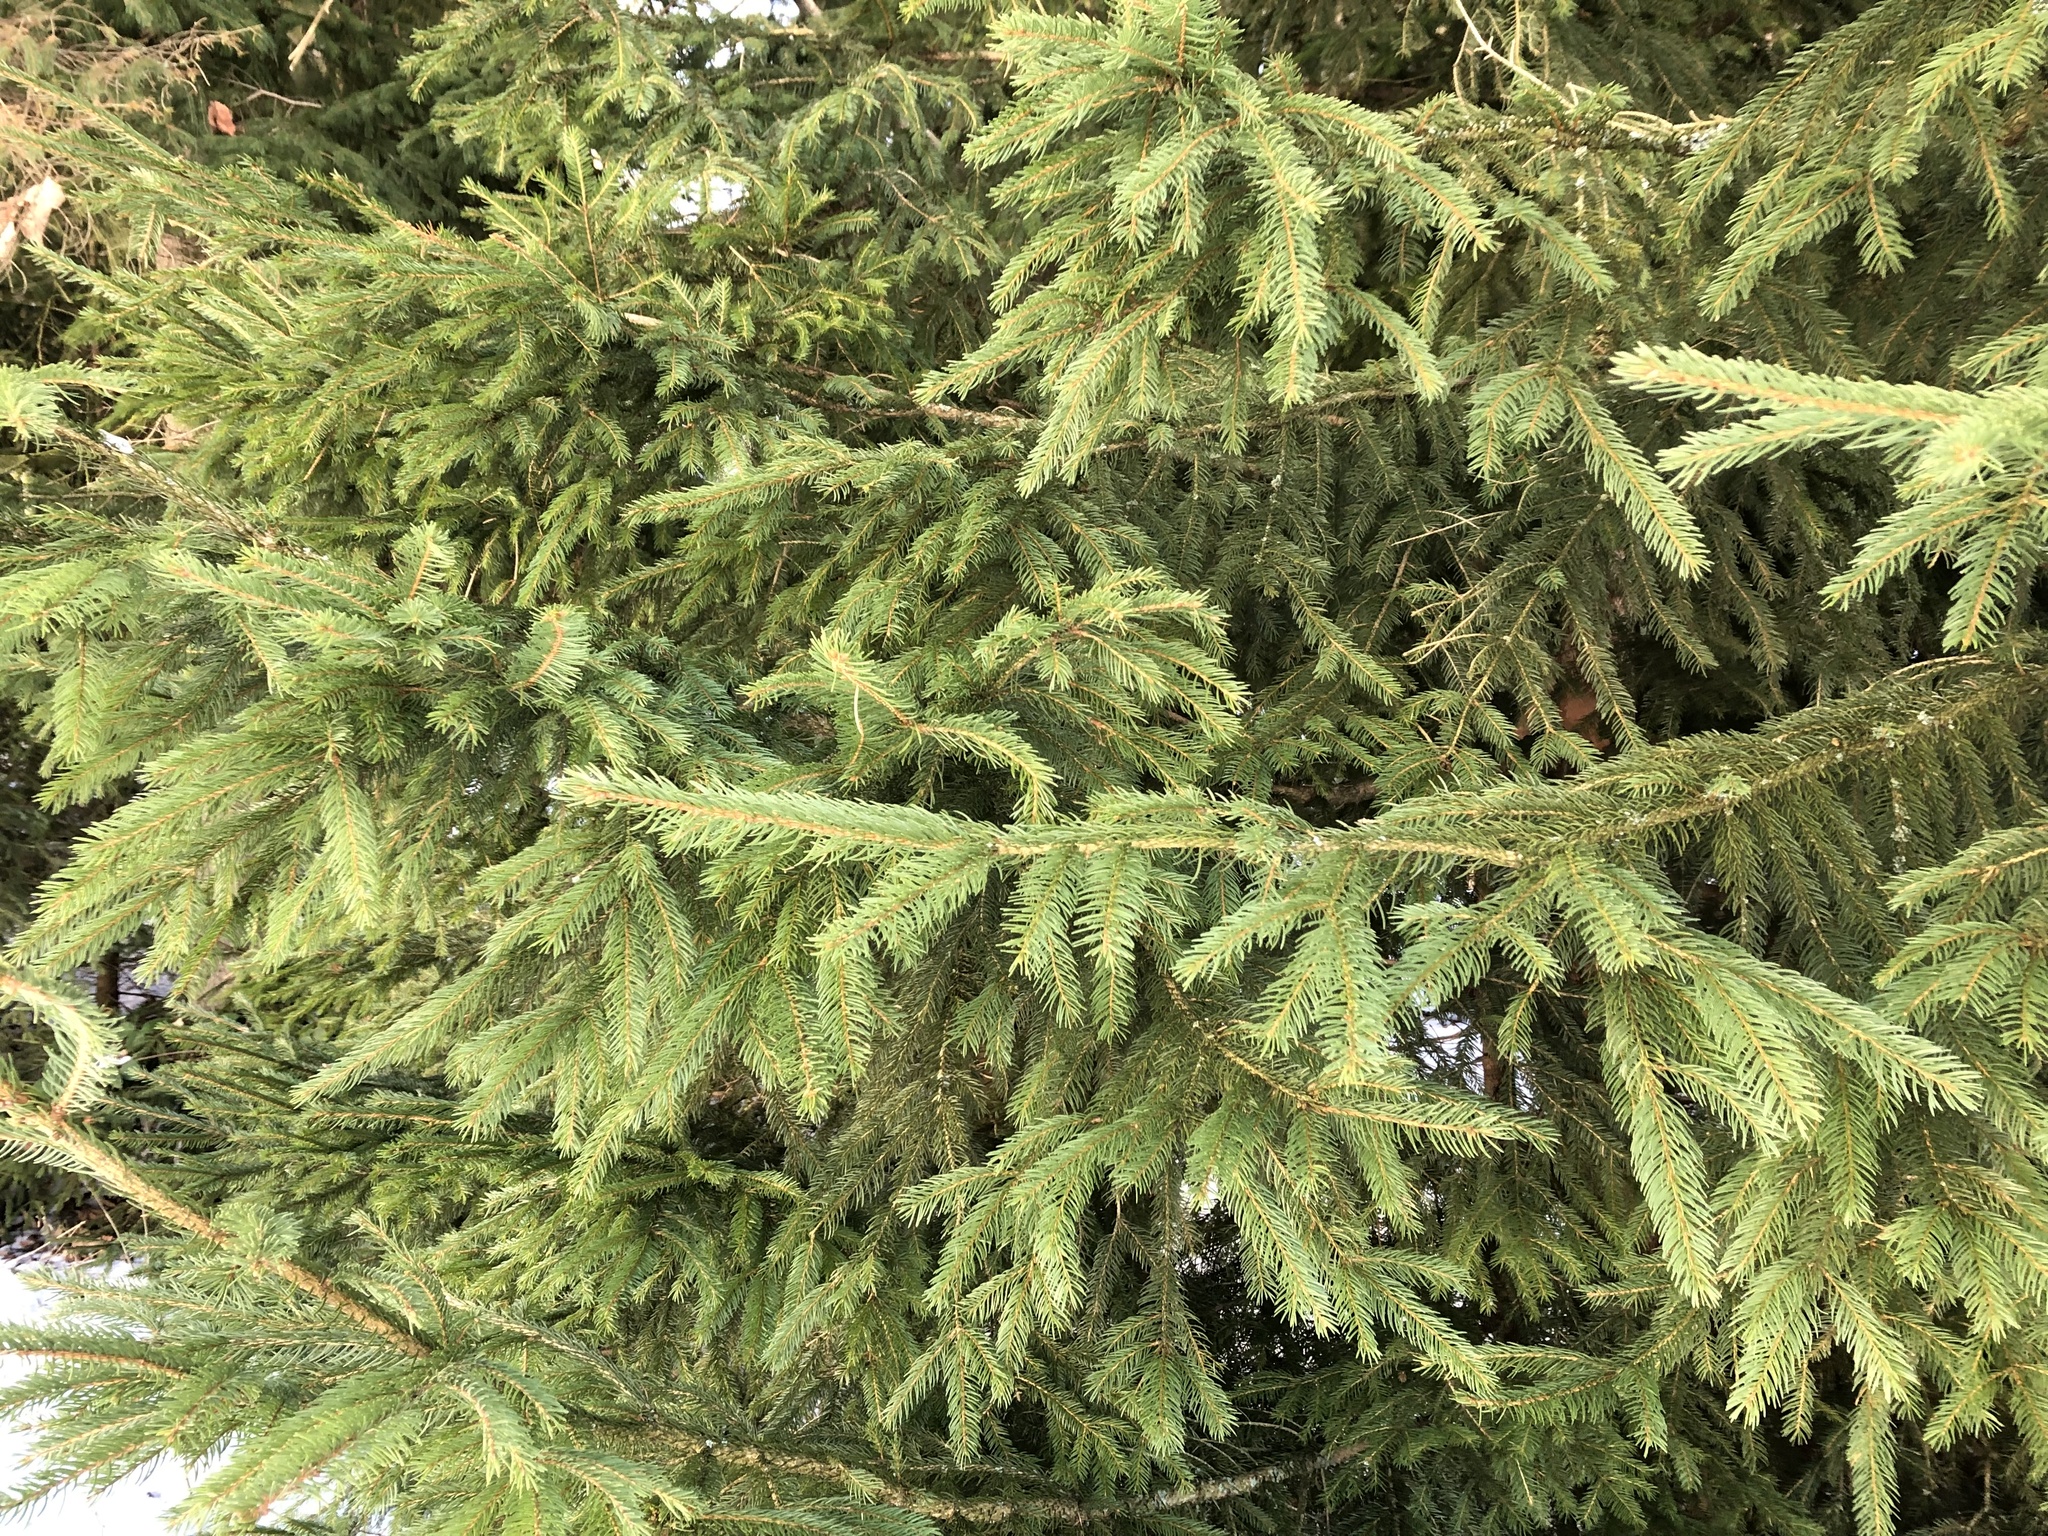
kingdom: Plantae
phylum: Tracheophyta
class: Pinopsida
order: Pinales
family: Pinaceae
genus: Picea
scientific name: Picea abies
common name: Norway spruce
